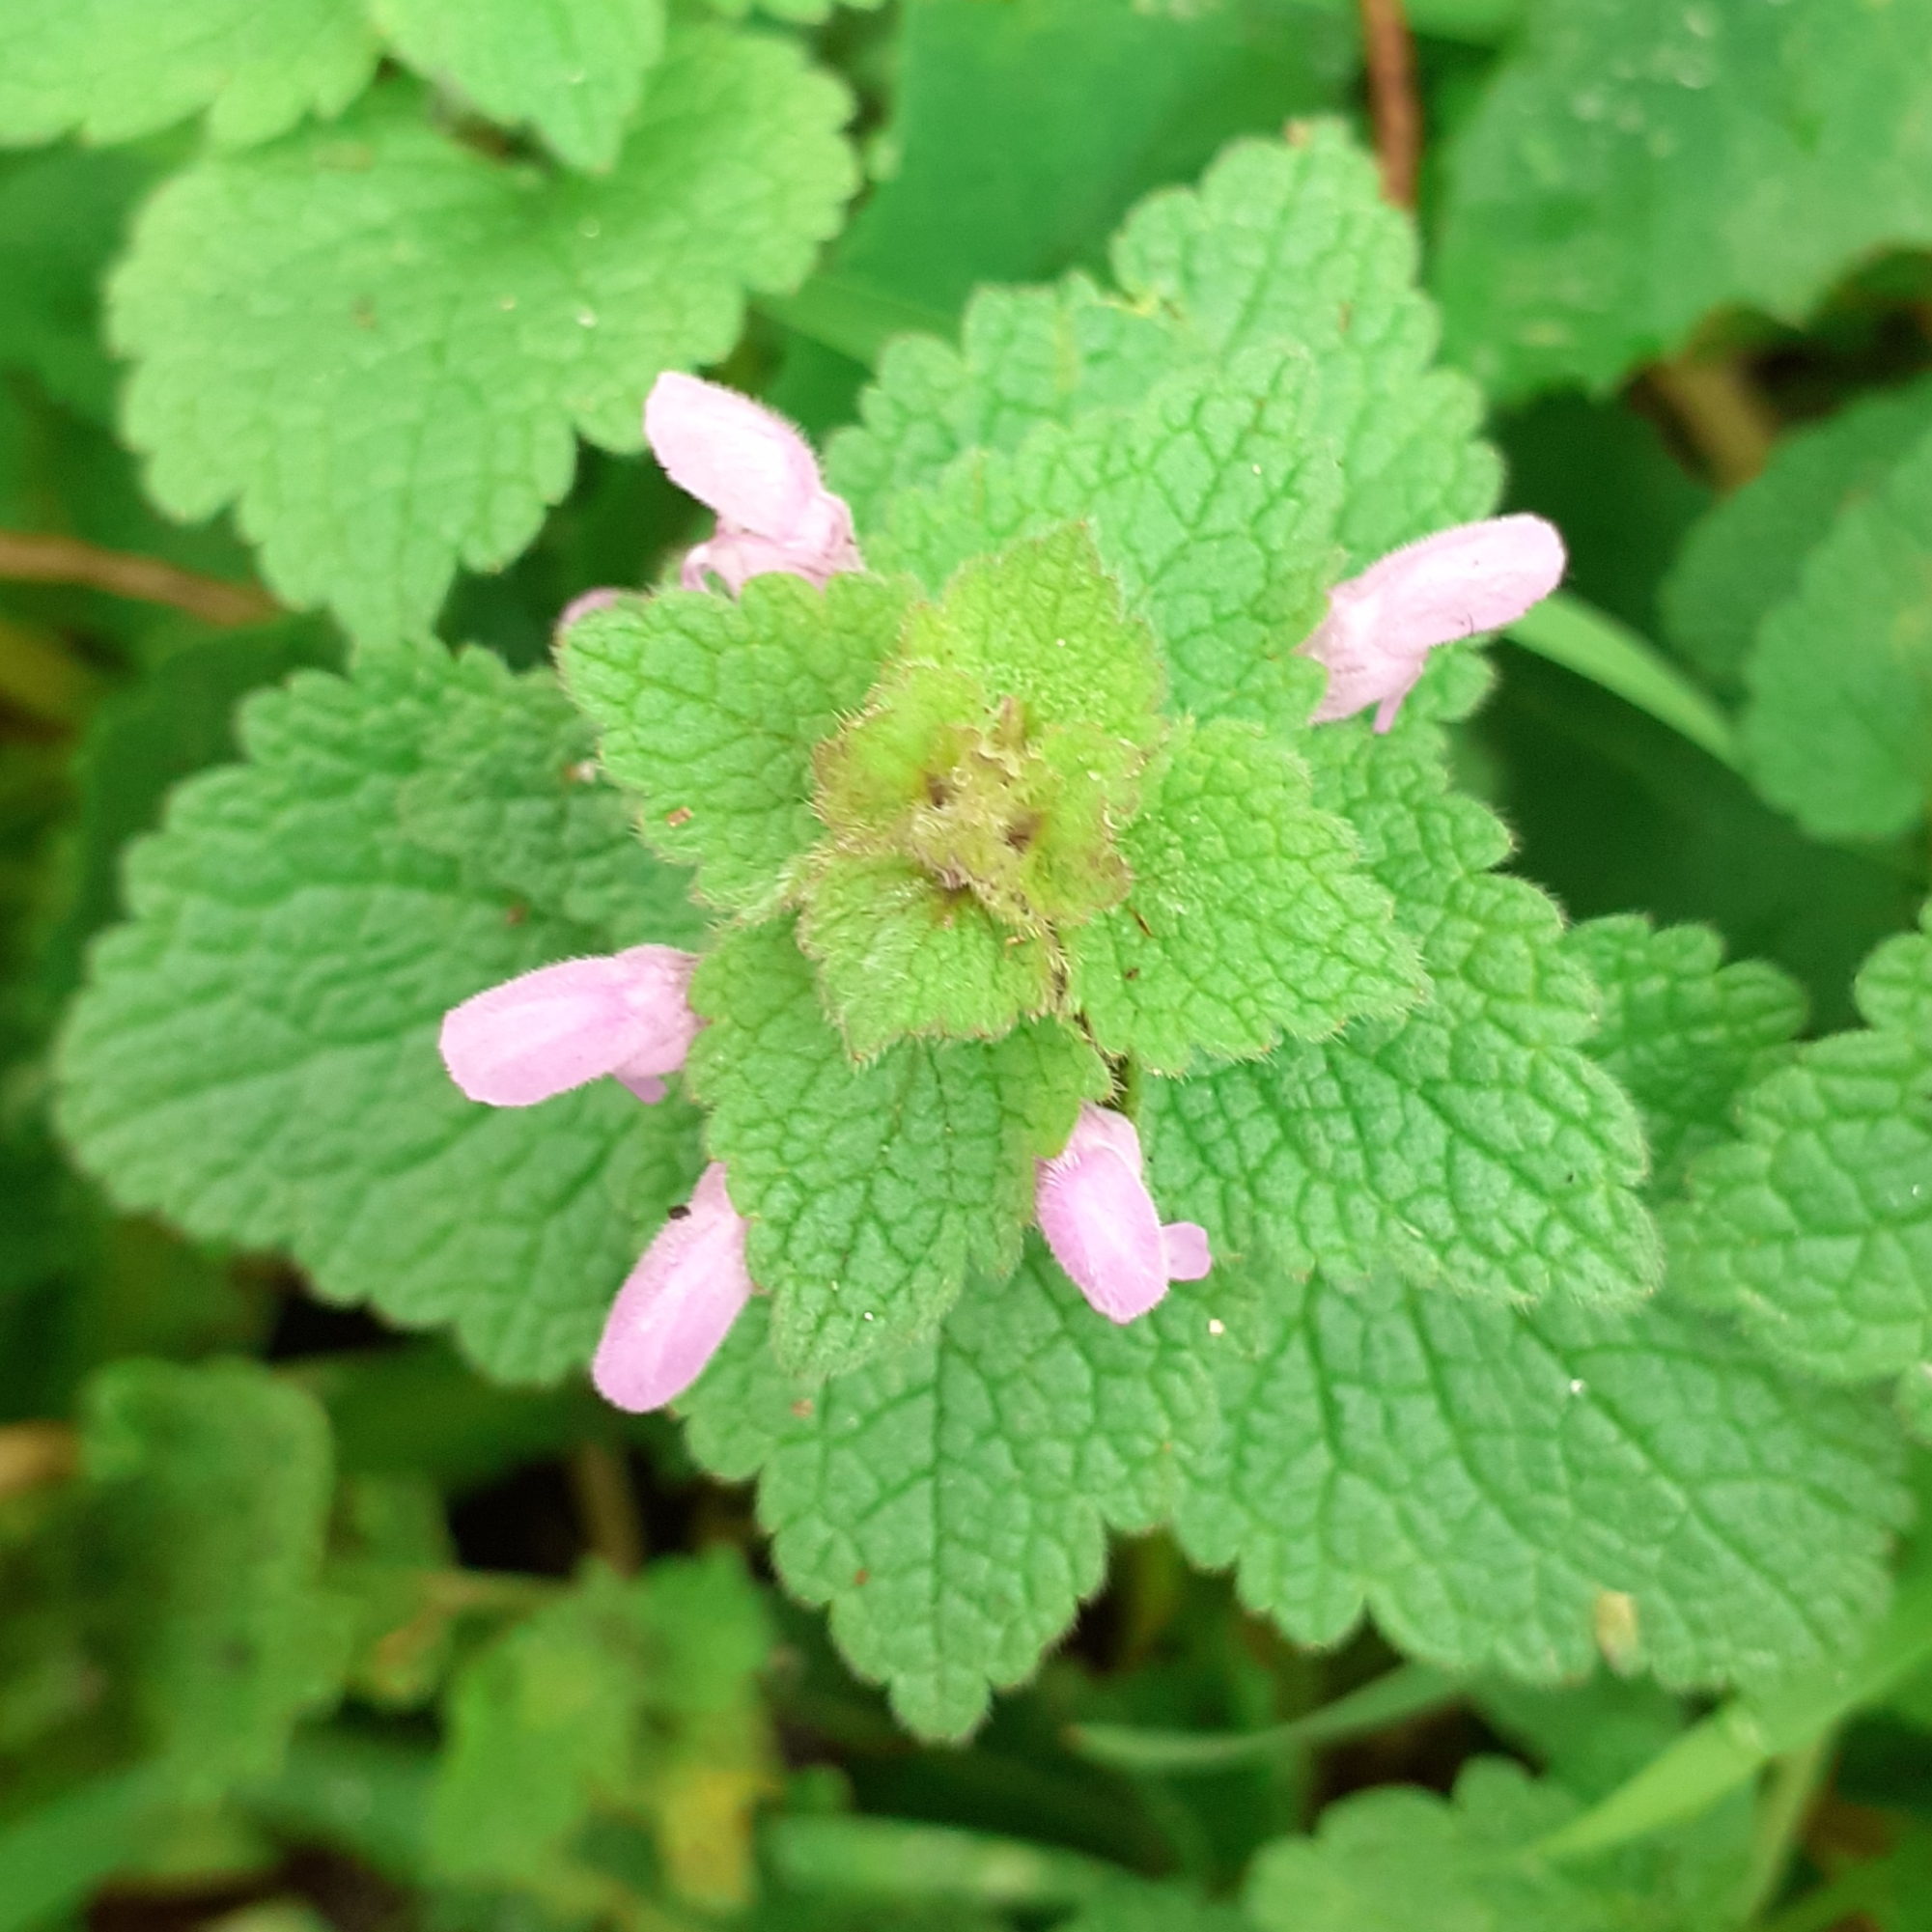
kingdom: Plantae
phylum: Tracheophyta
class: Magnoliopsida
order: Lamiales
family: Lamiaceae
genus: Lamium
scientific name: Lamium purpureum
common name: Red dead-nettle
